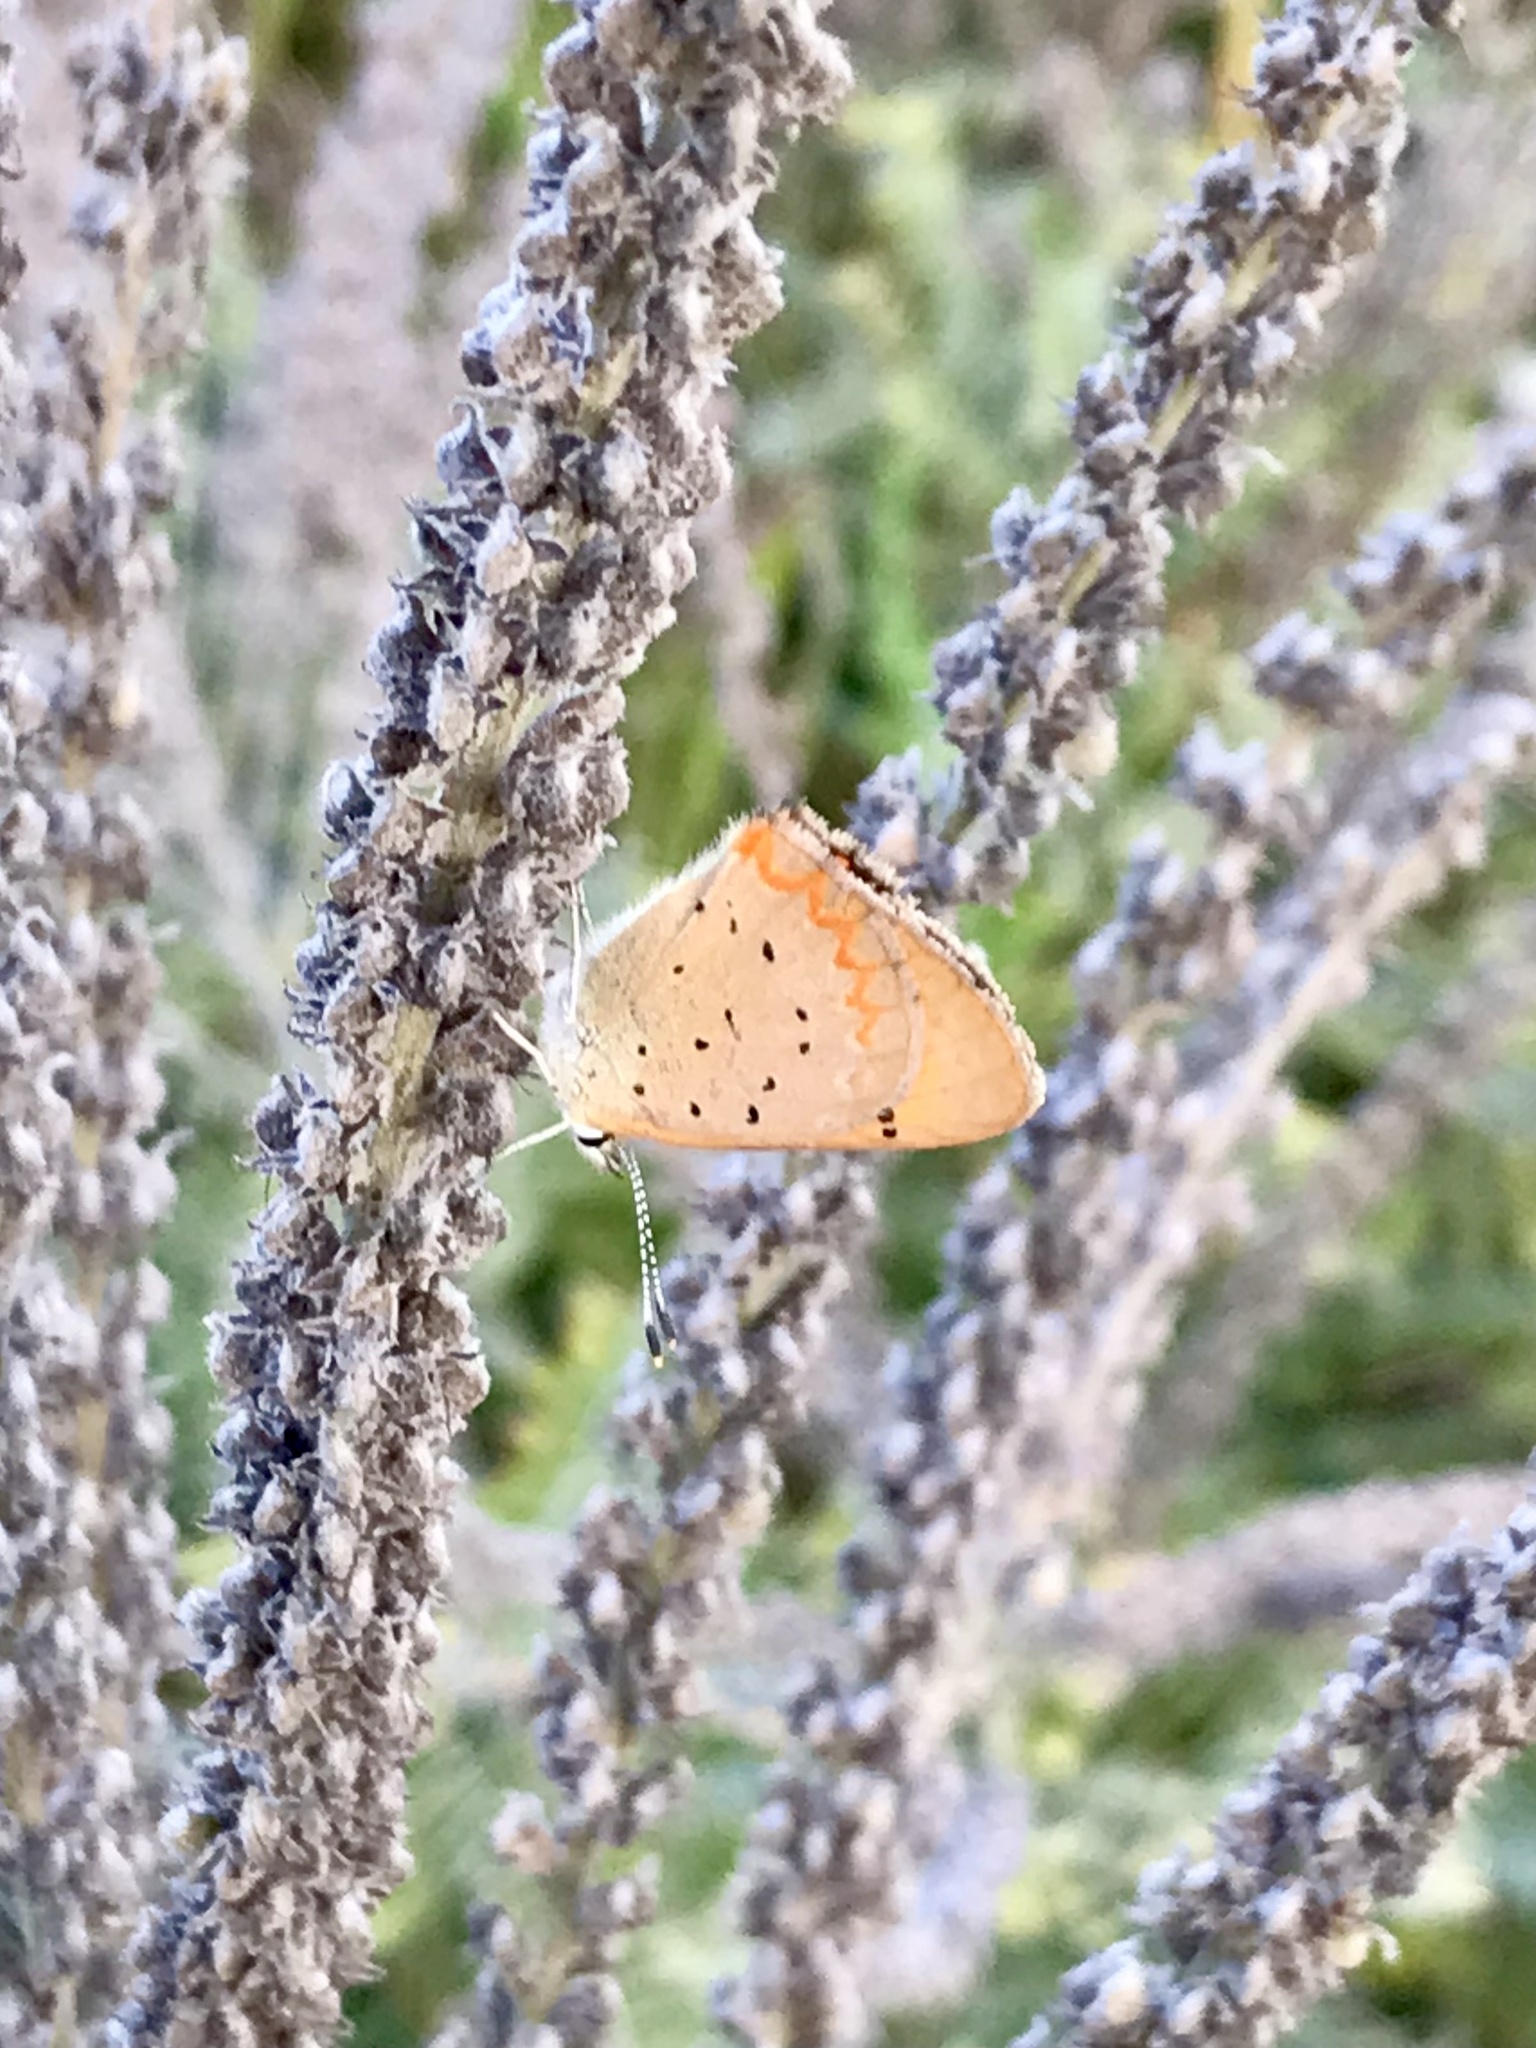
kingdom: Animalia
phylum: Arthropoda
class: Insecta
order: Lepidoptera
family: Lycaenidae
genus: Tharsalea
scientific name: Tharsalea helloides
